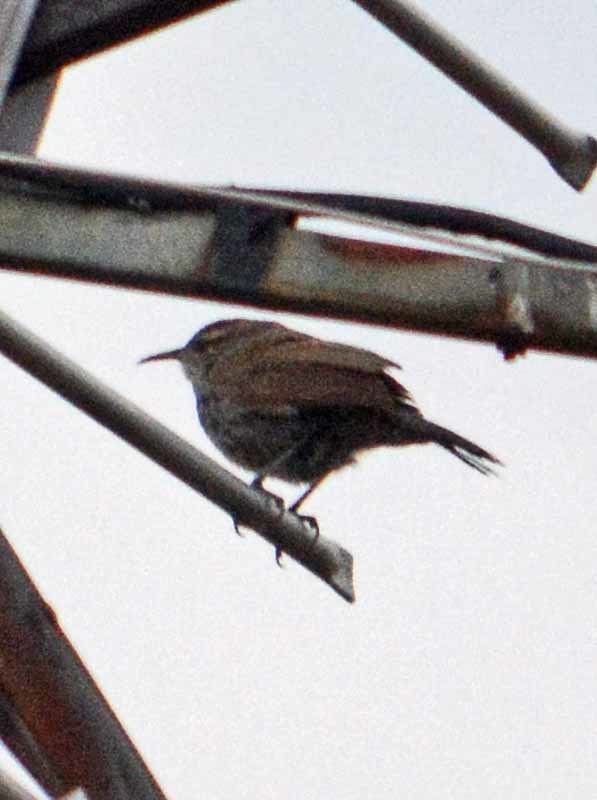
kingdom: Animalia
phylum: Chordata
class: Aves
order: Passeriformes
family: Troglodytidae
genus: Thryomanes
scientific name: Thryomanes bewickii
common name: Bewick's wren
